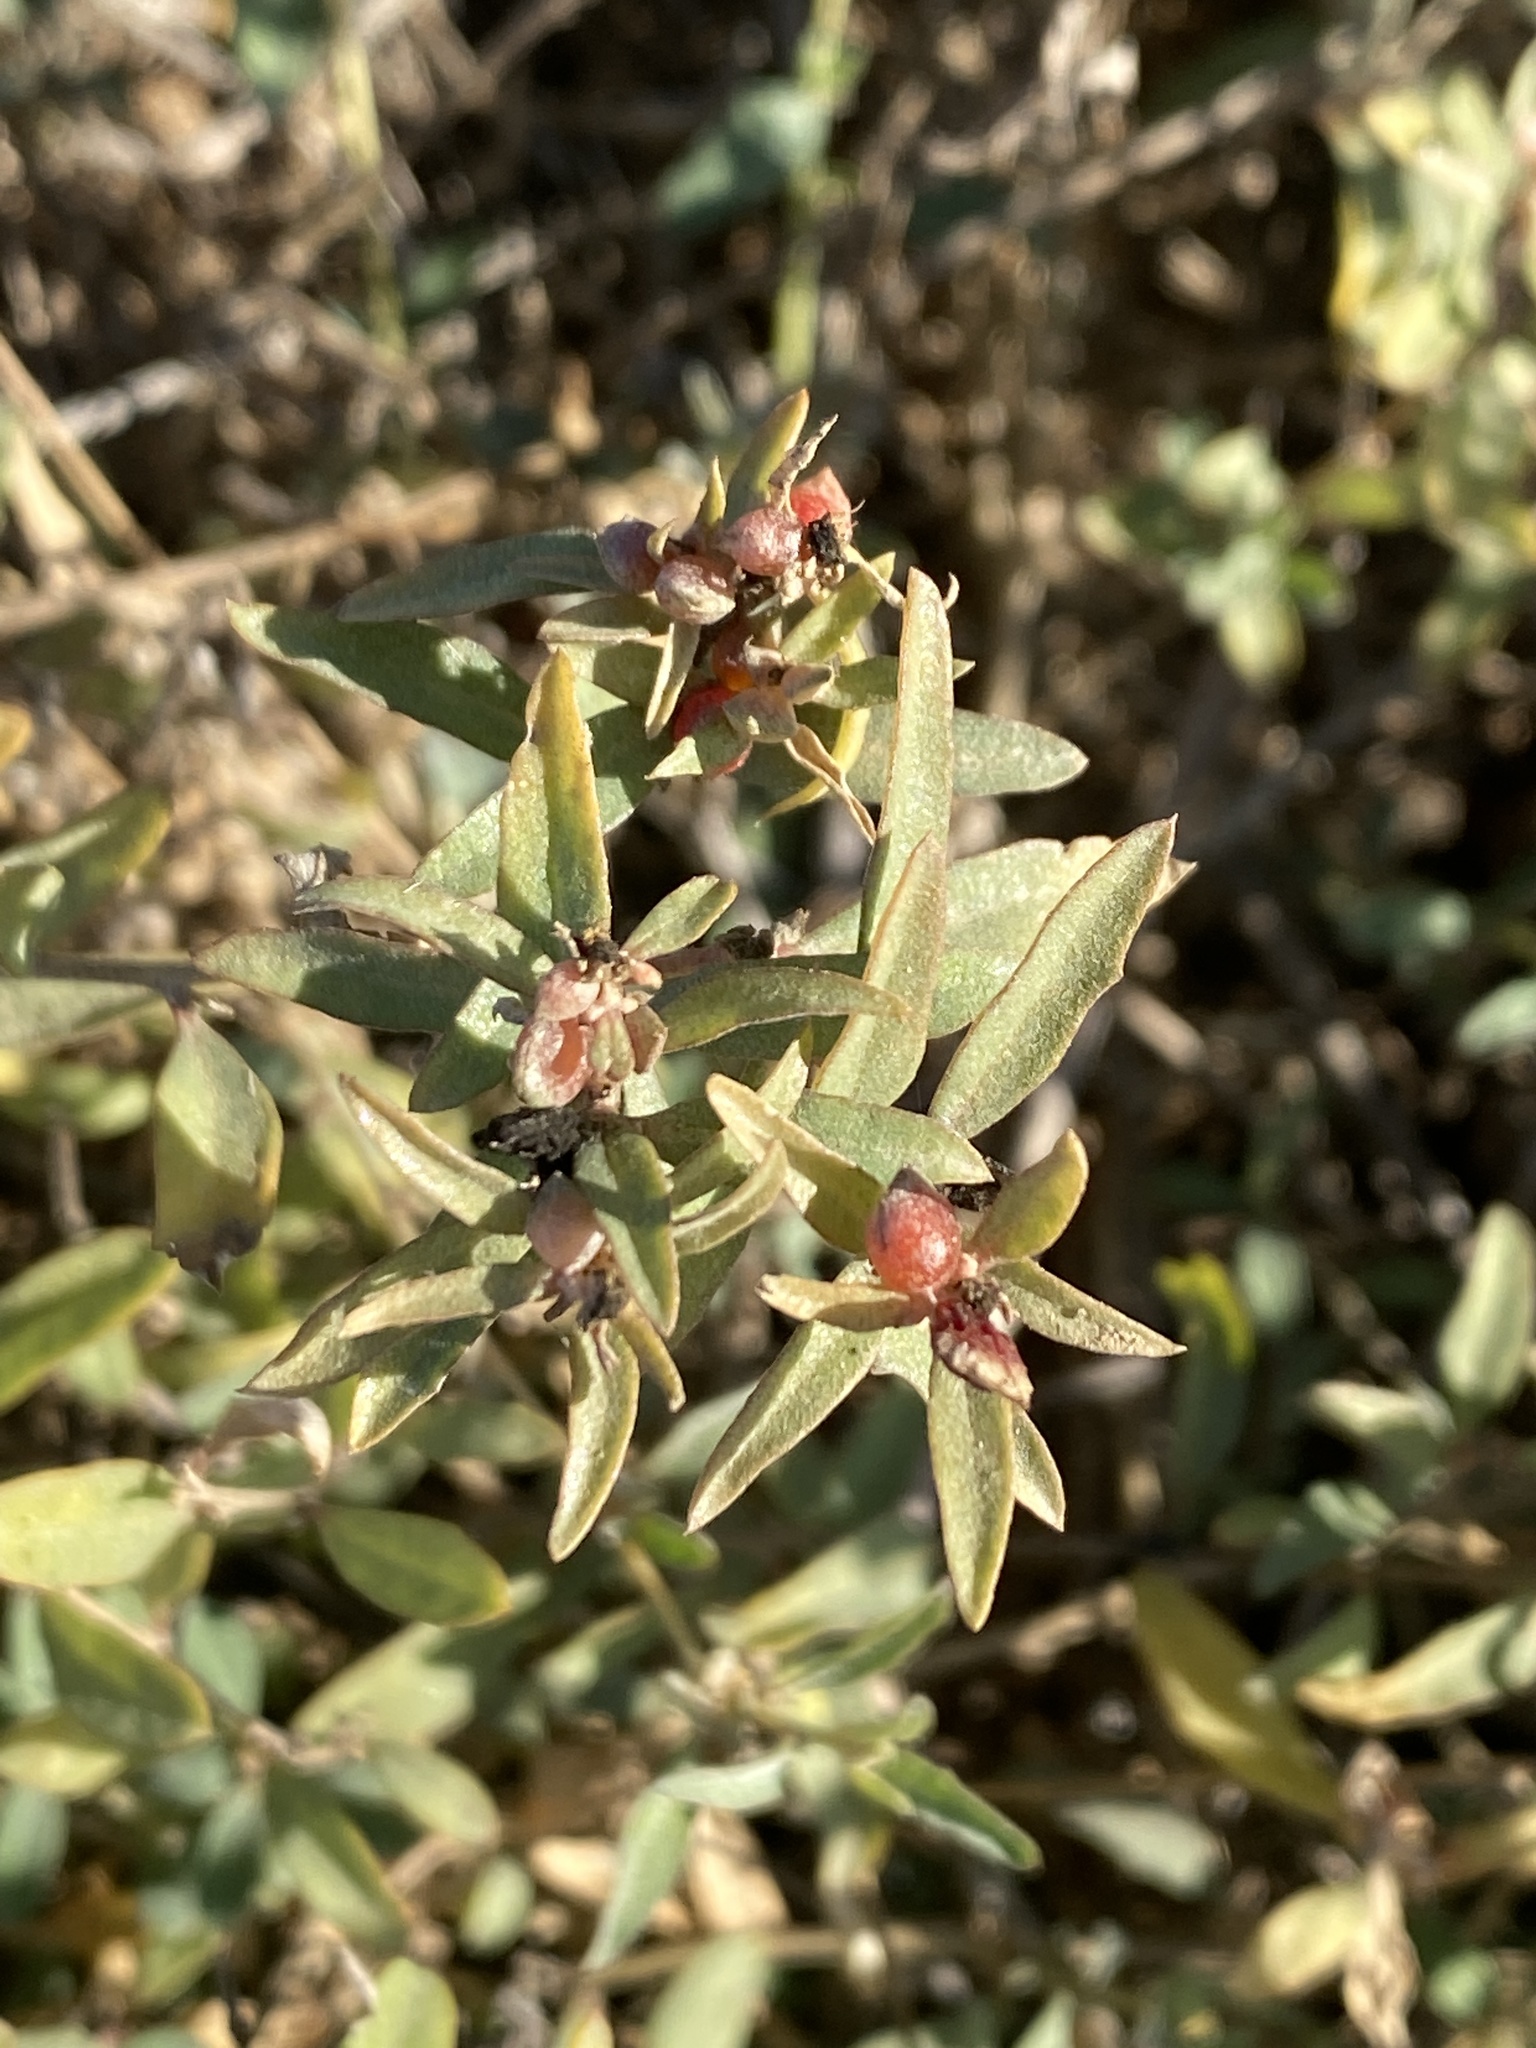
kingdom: Plantae
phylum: Tracheophyta
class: Magnoliopsida
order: Caryophyllales
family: Amaranthaceae
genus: Atriplex
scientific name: Atriplex semibaccata
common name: Australian saltbush
